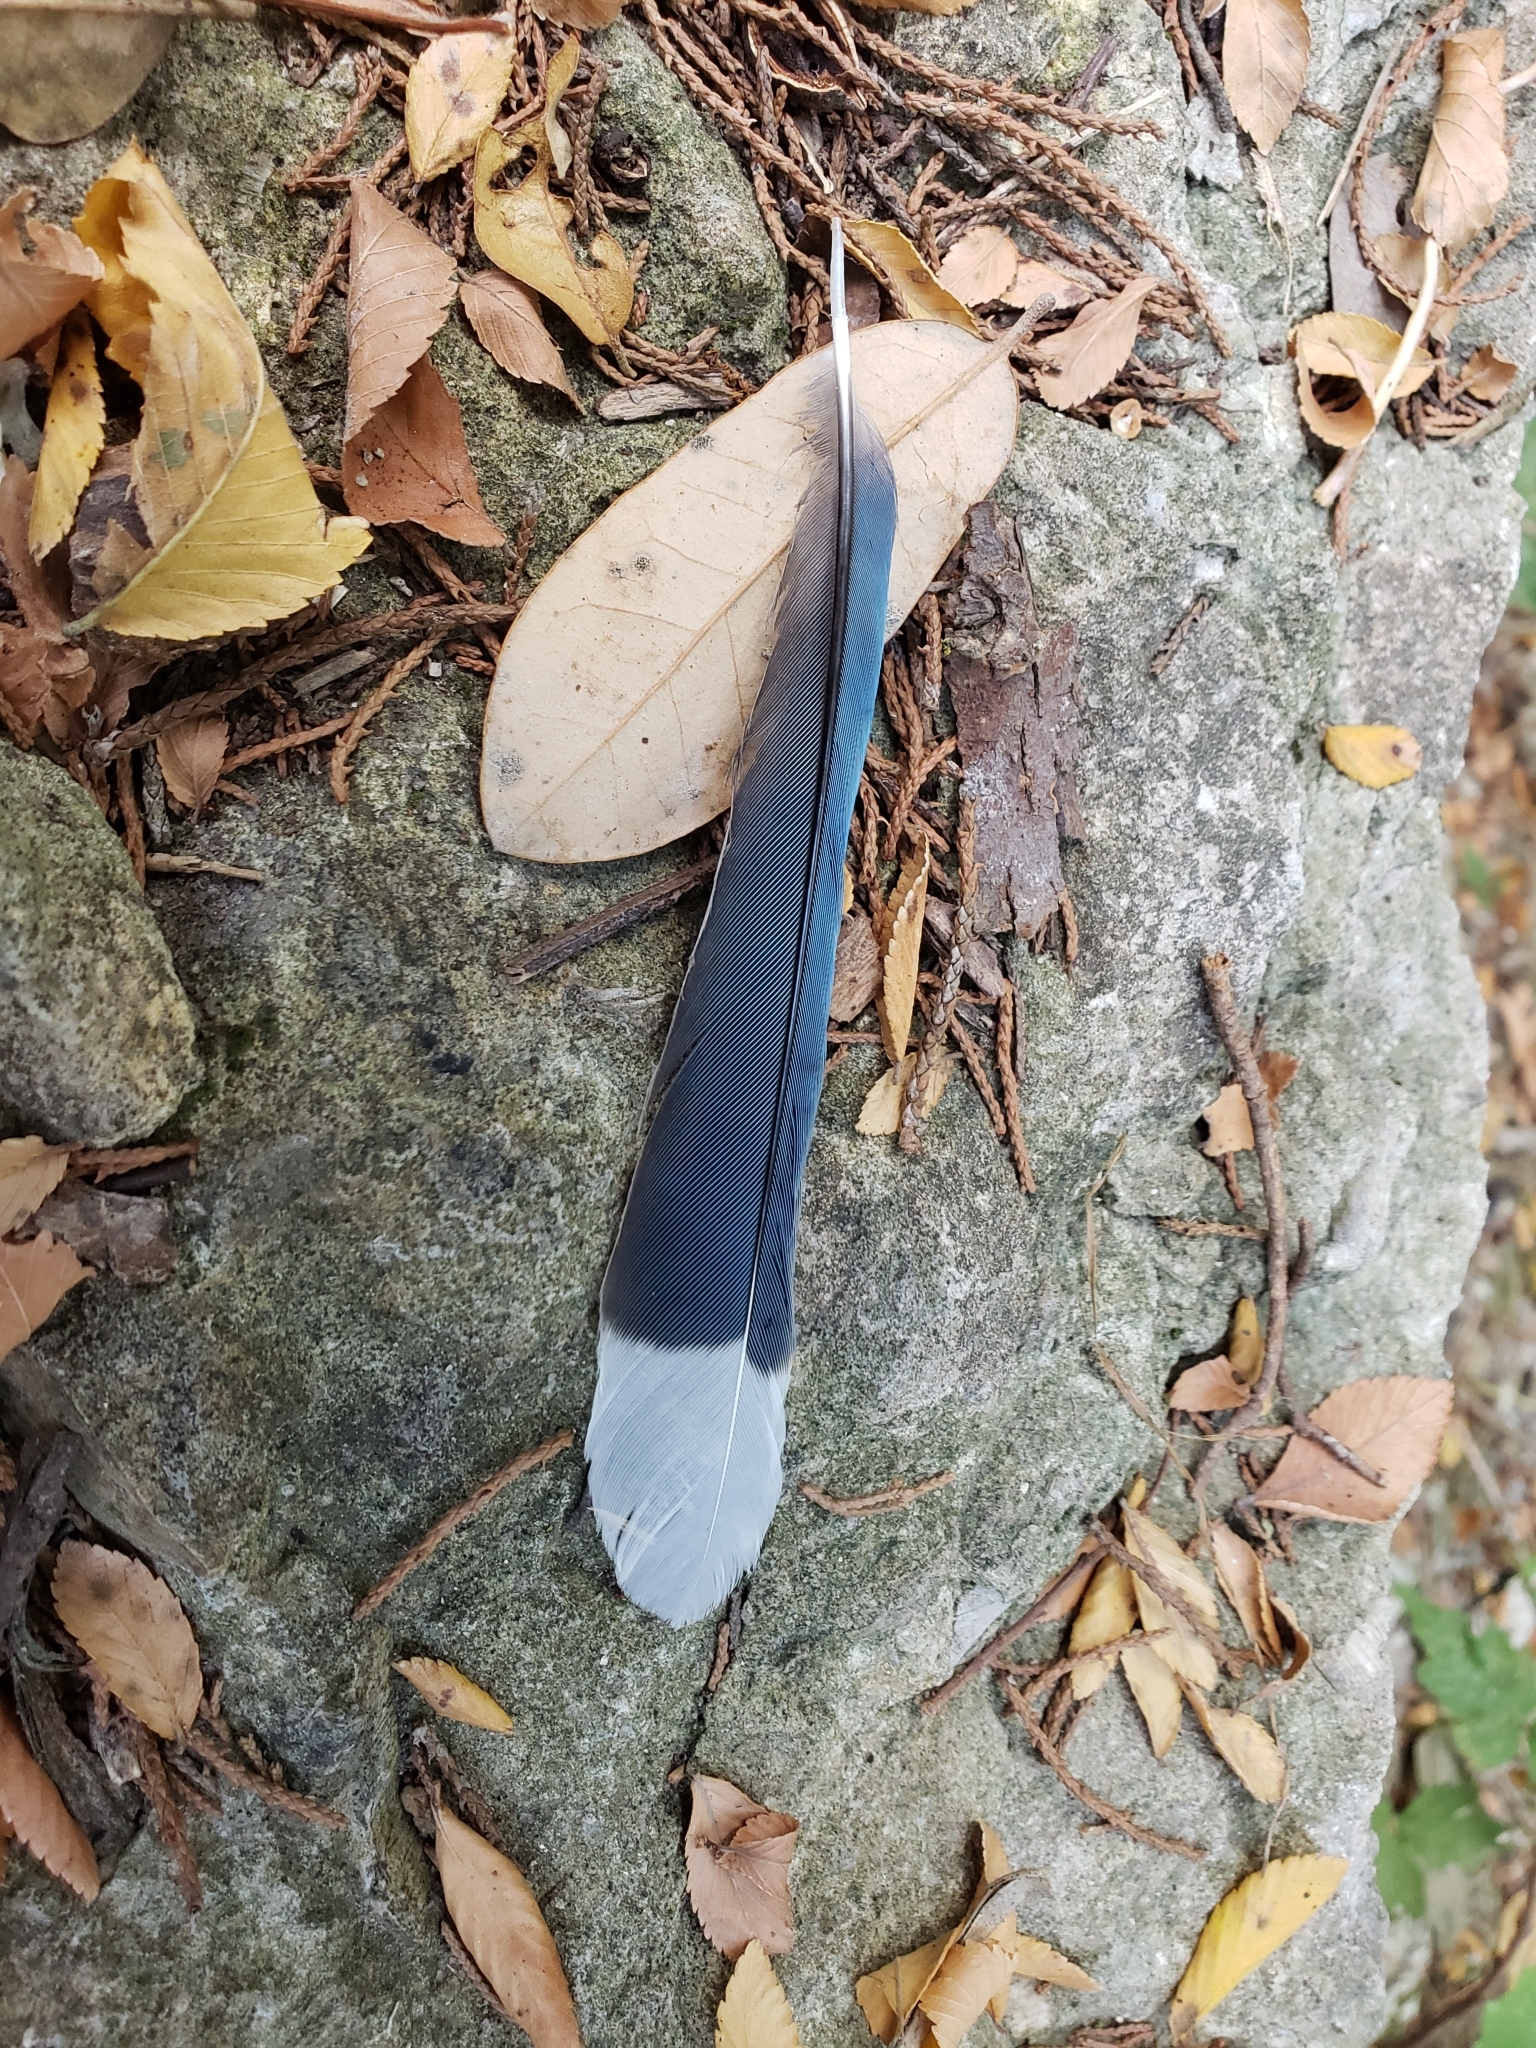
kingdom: Animalia
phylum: Chordata
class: Aves
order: Passeriformes
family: Corvidae
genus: Cyanocitta
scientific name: Cyanocitta cristata
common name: Blue jay
